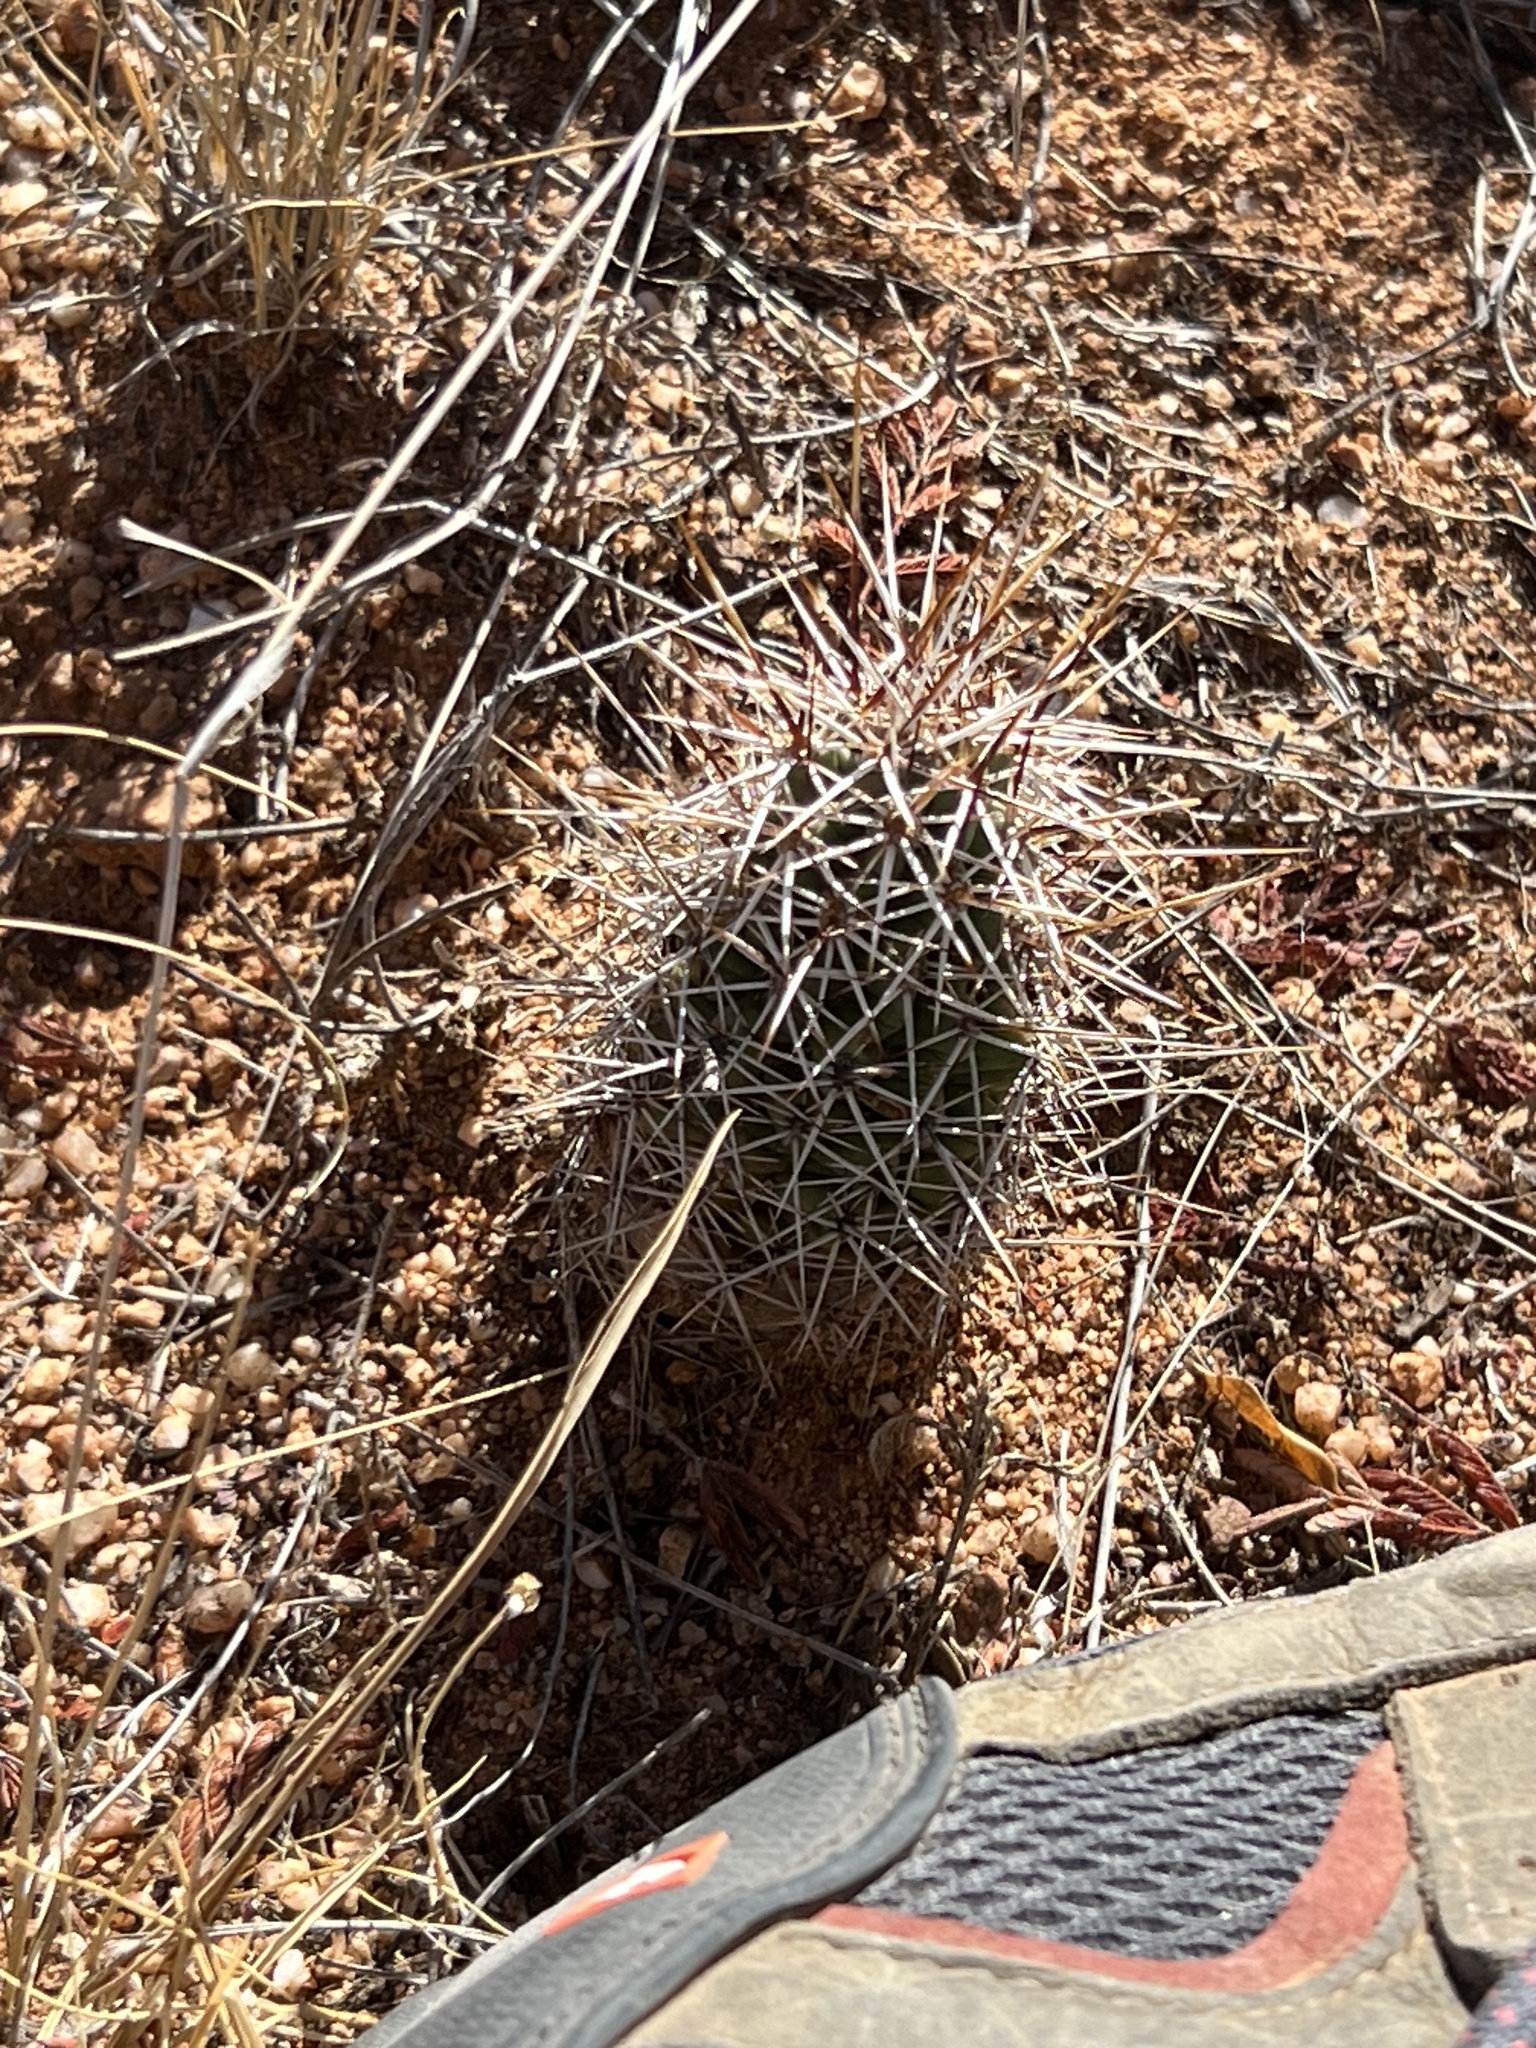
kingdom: Plantae
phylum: Tracheophyta
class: Magnoliopsida
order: Caryophyllales
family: Cactaceae
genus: Echinocereus
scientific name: Echinocereus fasciculatus
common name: Bundle hedgehog
